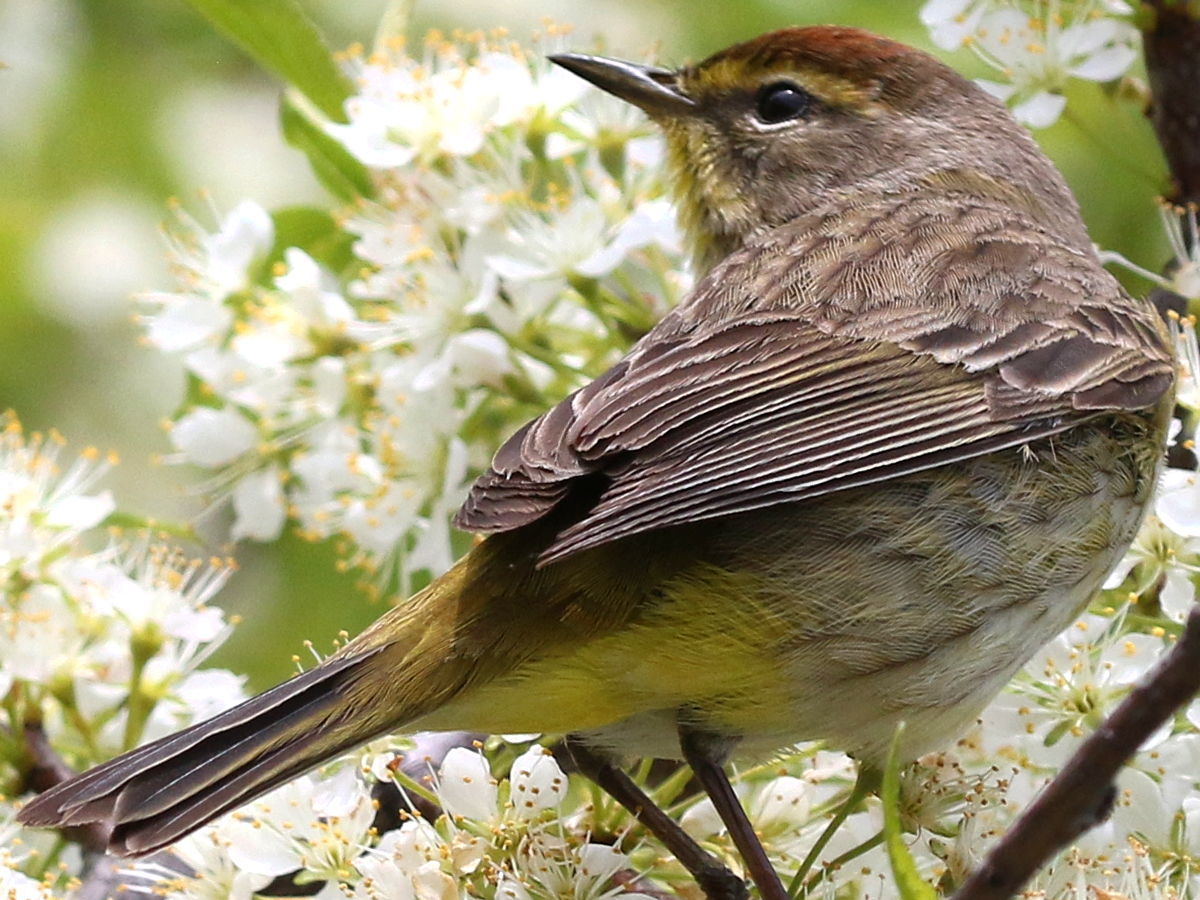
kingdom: Animalia
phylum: Chordata
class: Aves
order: Passeriformes
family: Parulidae
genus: Setophaga
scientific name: Setophaga palmarum
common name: Palm warbler
